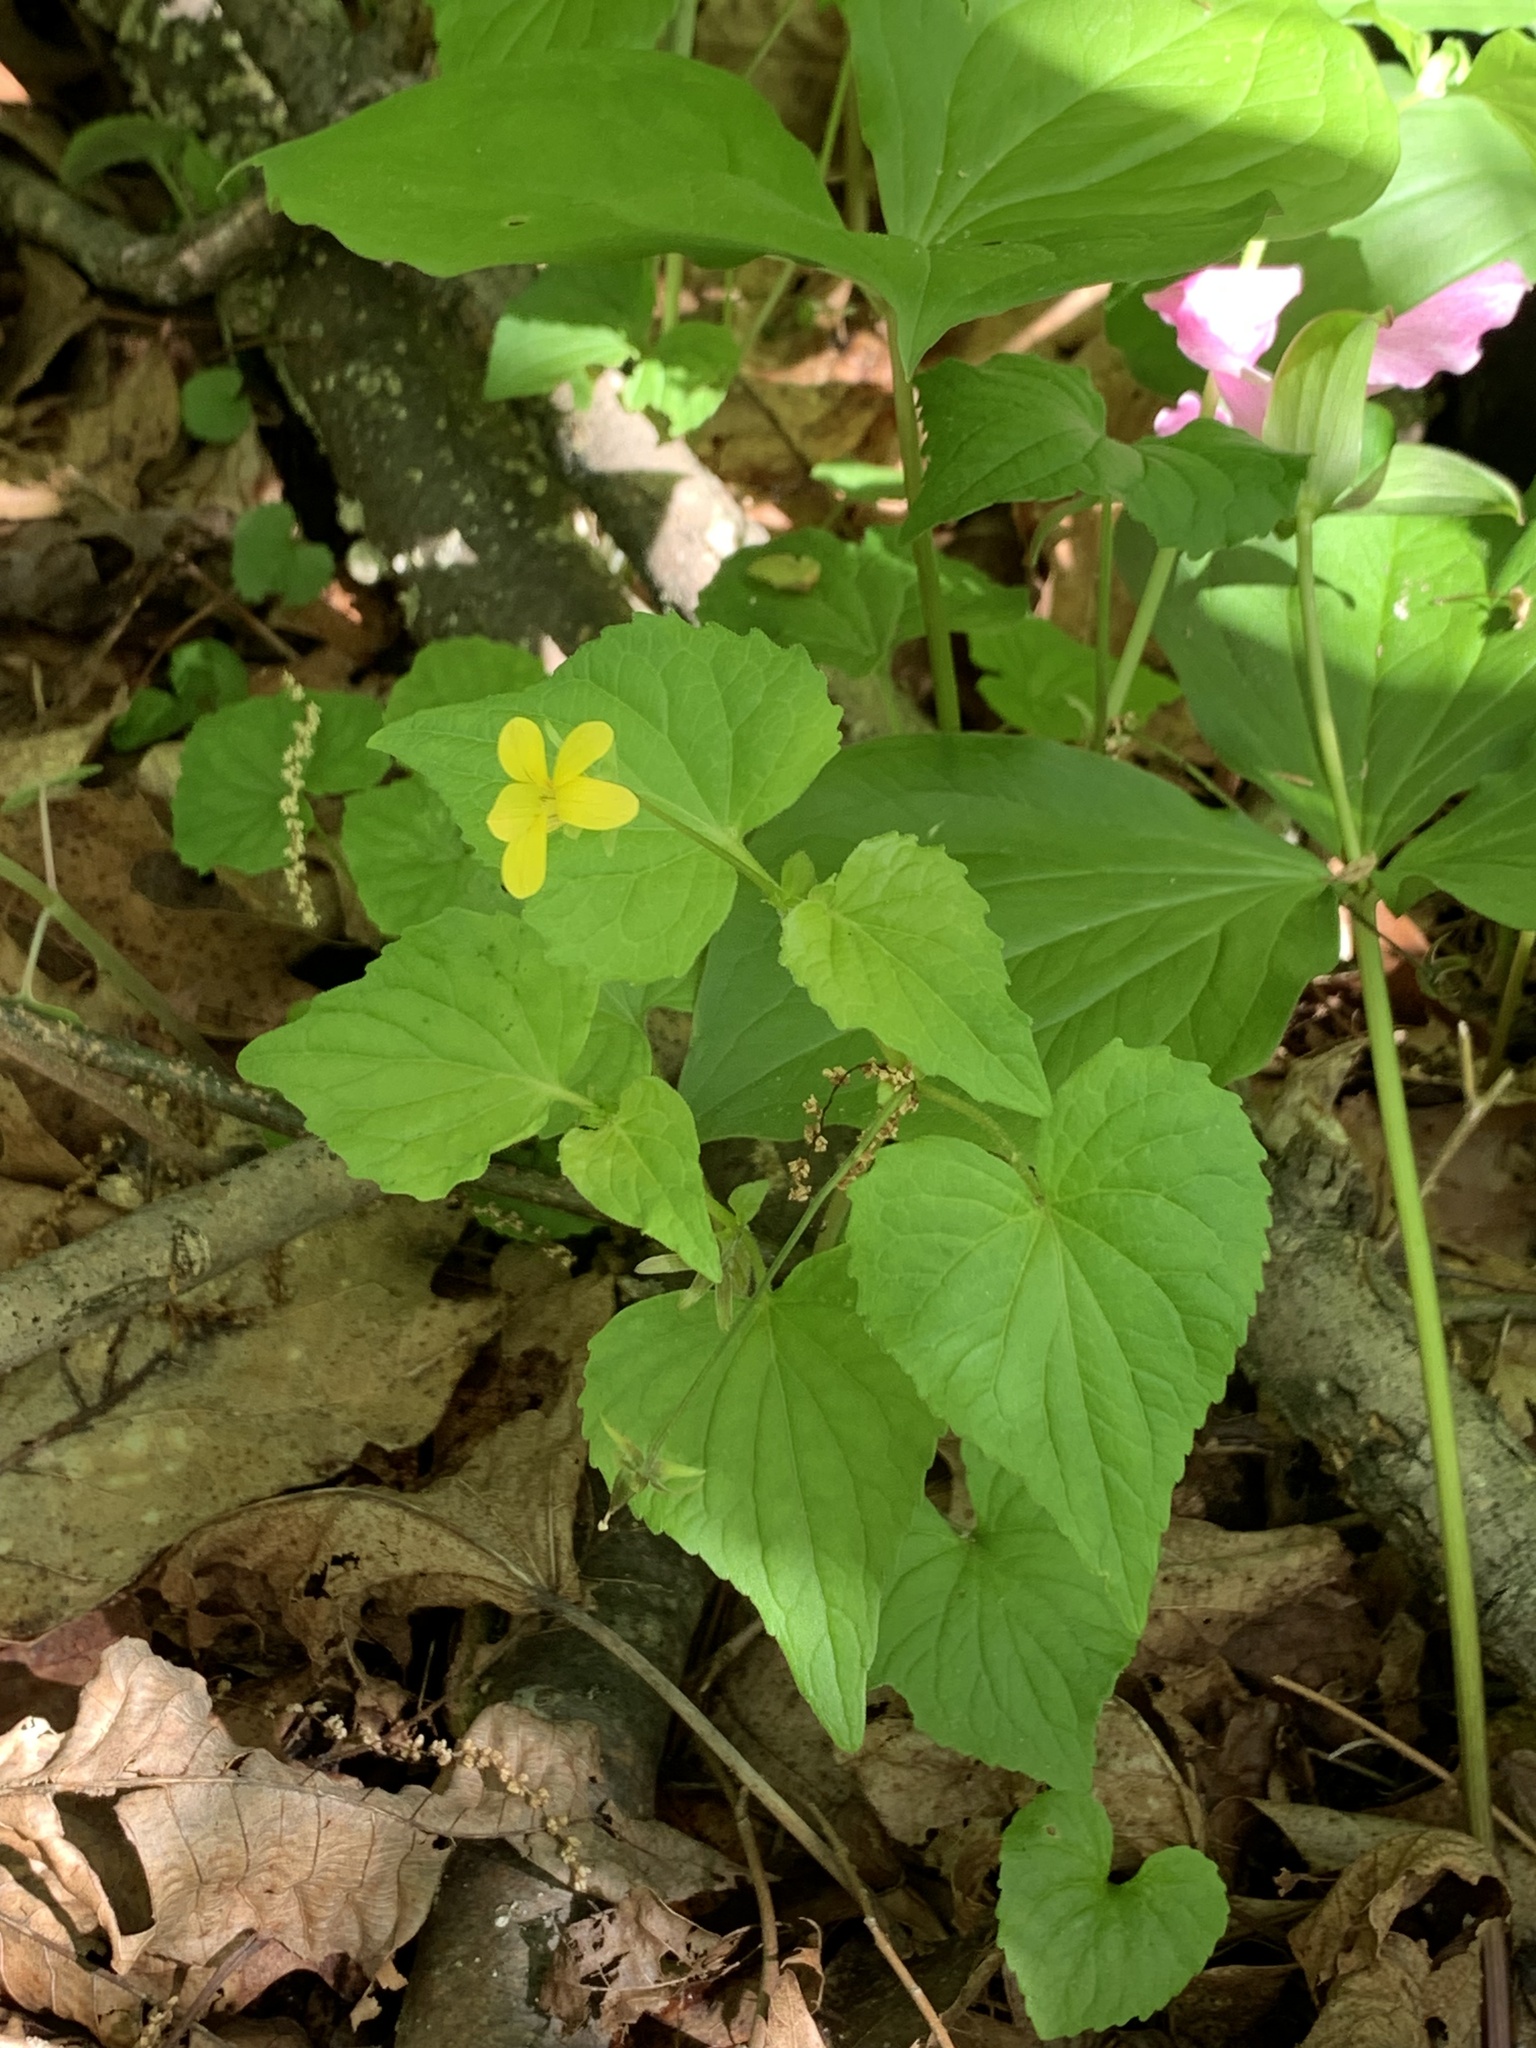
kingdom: Plantae
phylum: Tracheophyta
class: Magnoliopsida
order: Malpighiales
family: Violaceae
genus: Viola
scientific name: Viola eriocarpa
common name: Smooth yellow violet
